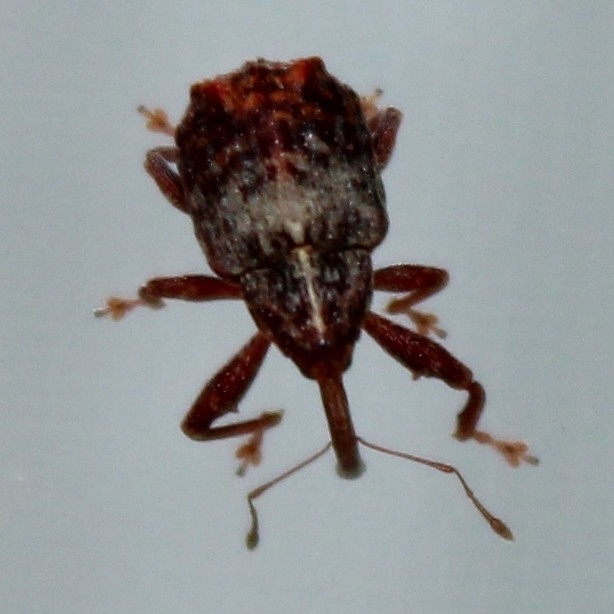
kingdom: Animalia
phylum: Arthropoda
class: Insecta
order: Coleoptera
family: Curculionidae
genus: Anthonomus
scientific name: Anthonomus quadrigibbus
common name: Apple curculio
